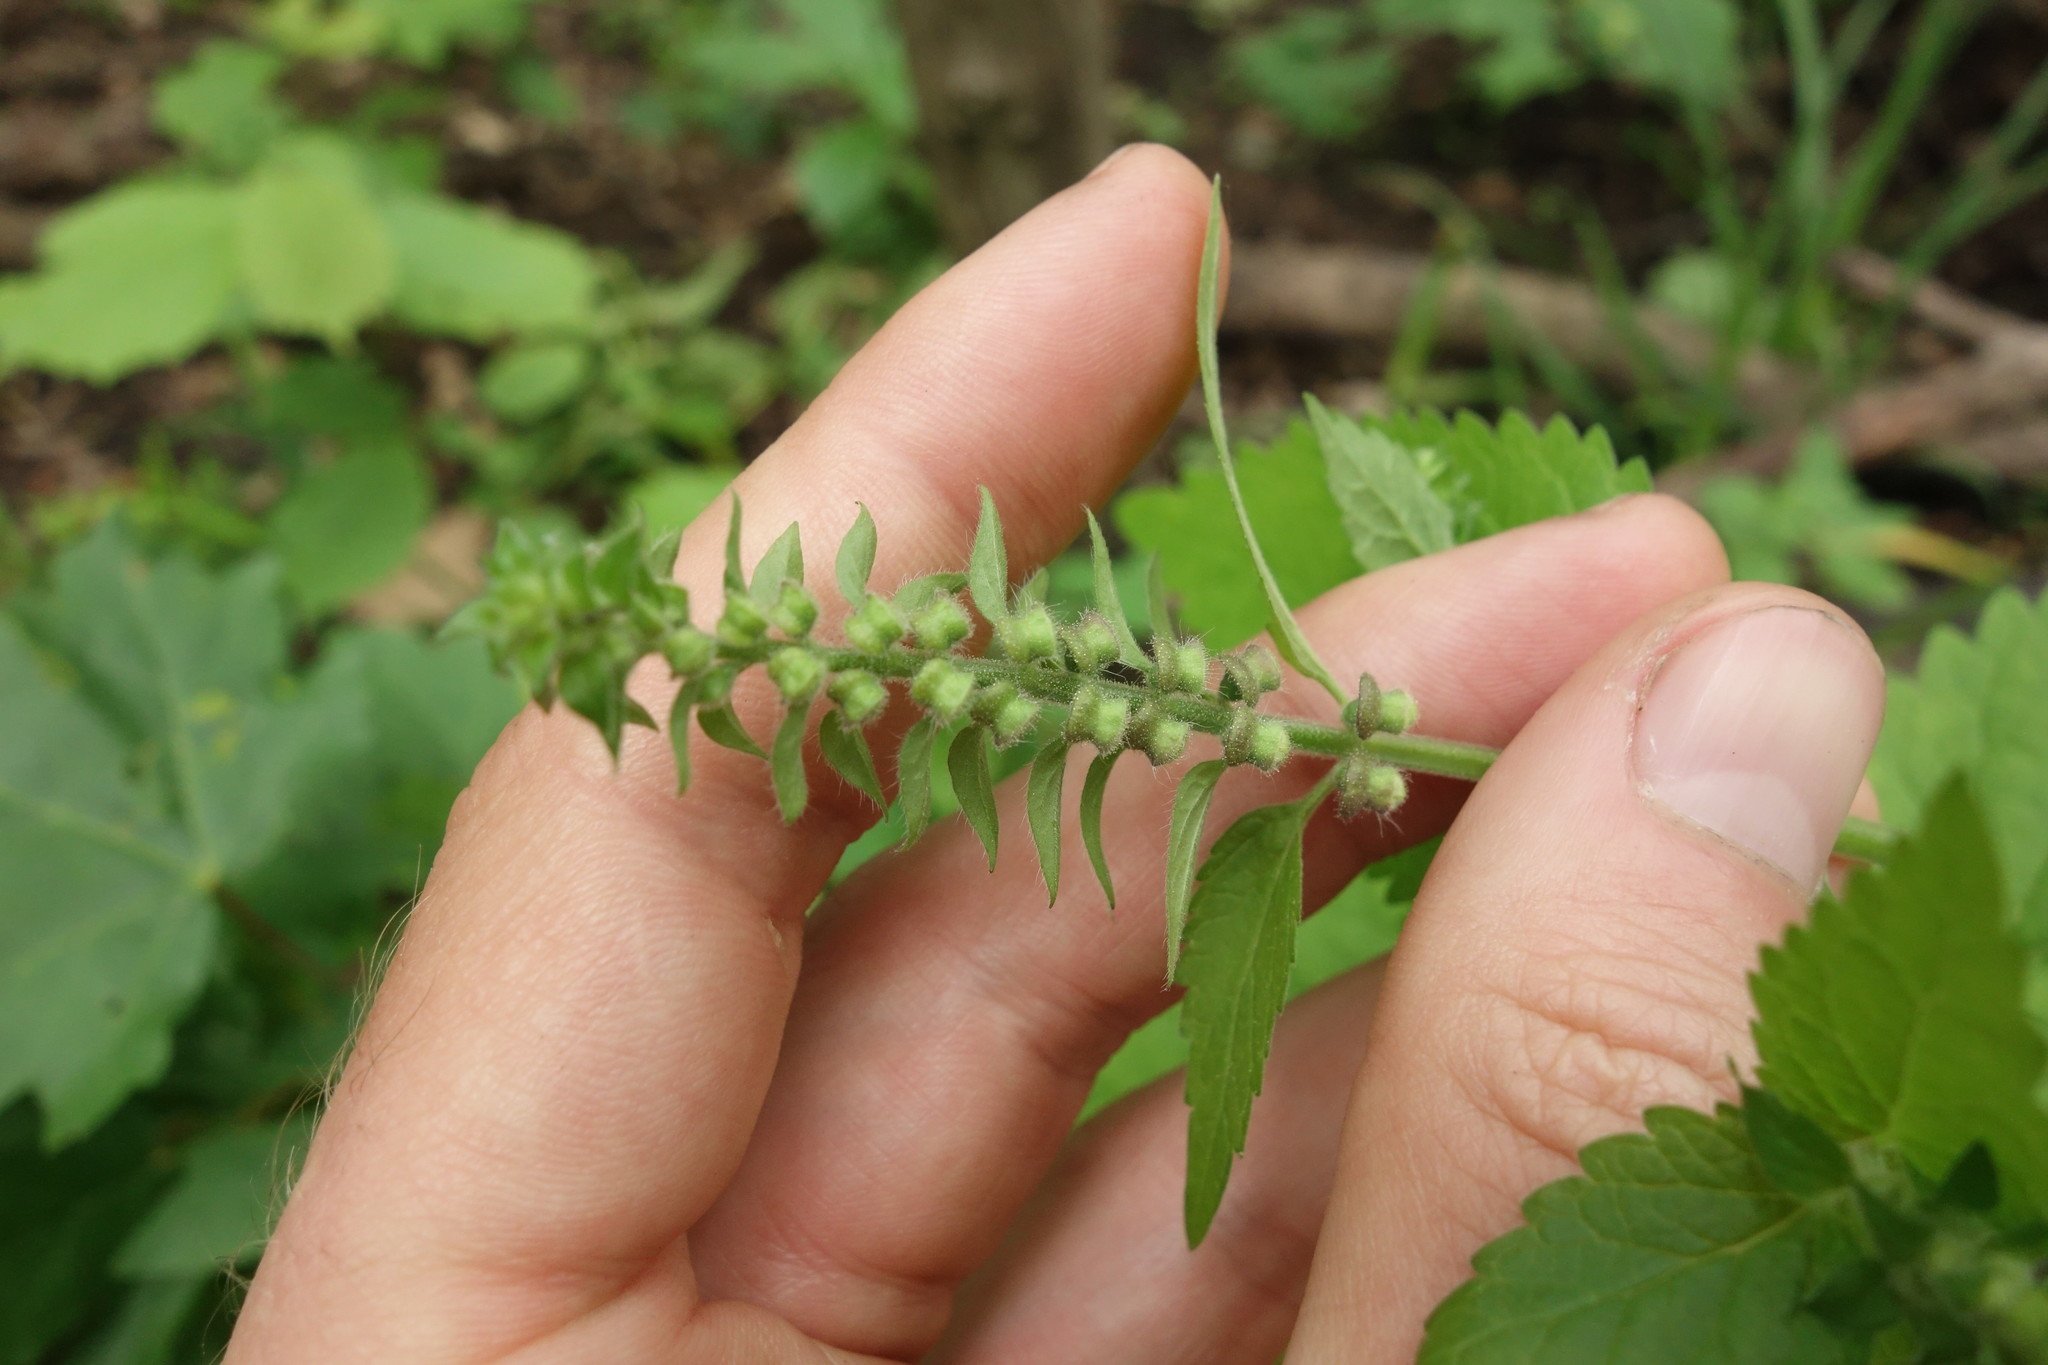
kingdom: Plantae
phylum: Tracheophyta
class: Magnoliopsida
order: Lamiales
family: Lamiaceae
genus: Scutellaria
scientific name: Scutellaria altissima
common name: Somerset skullcap
